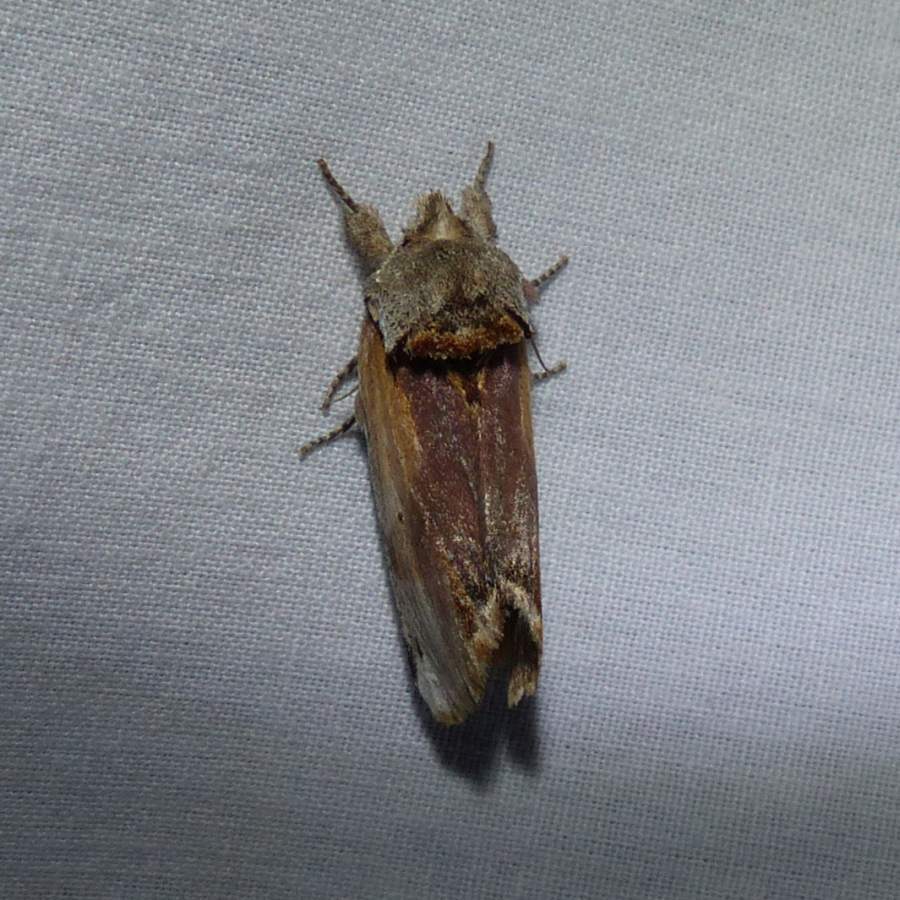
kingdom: Animalia
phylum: Arthropoda
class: Insecta
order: Lepidoptera
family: Notodontidae
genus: Schizura
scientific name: Schizura
